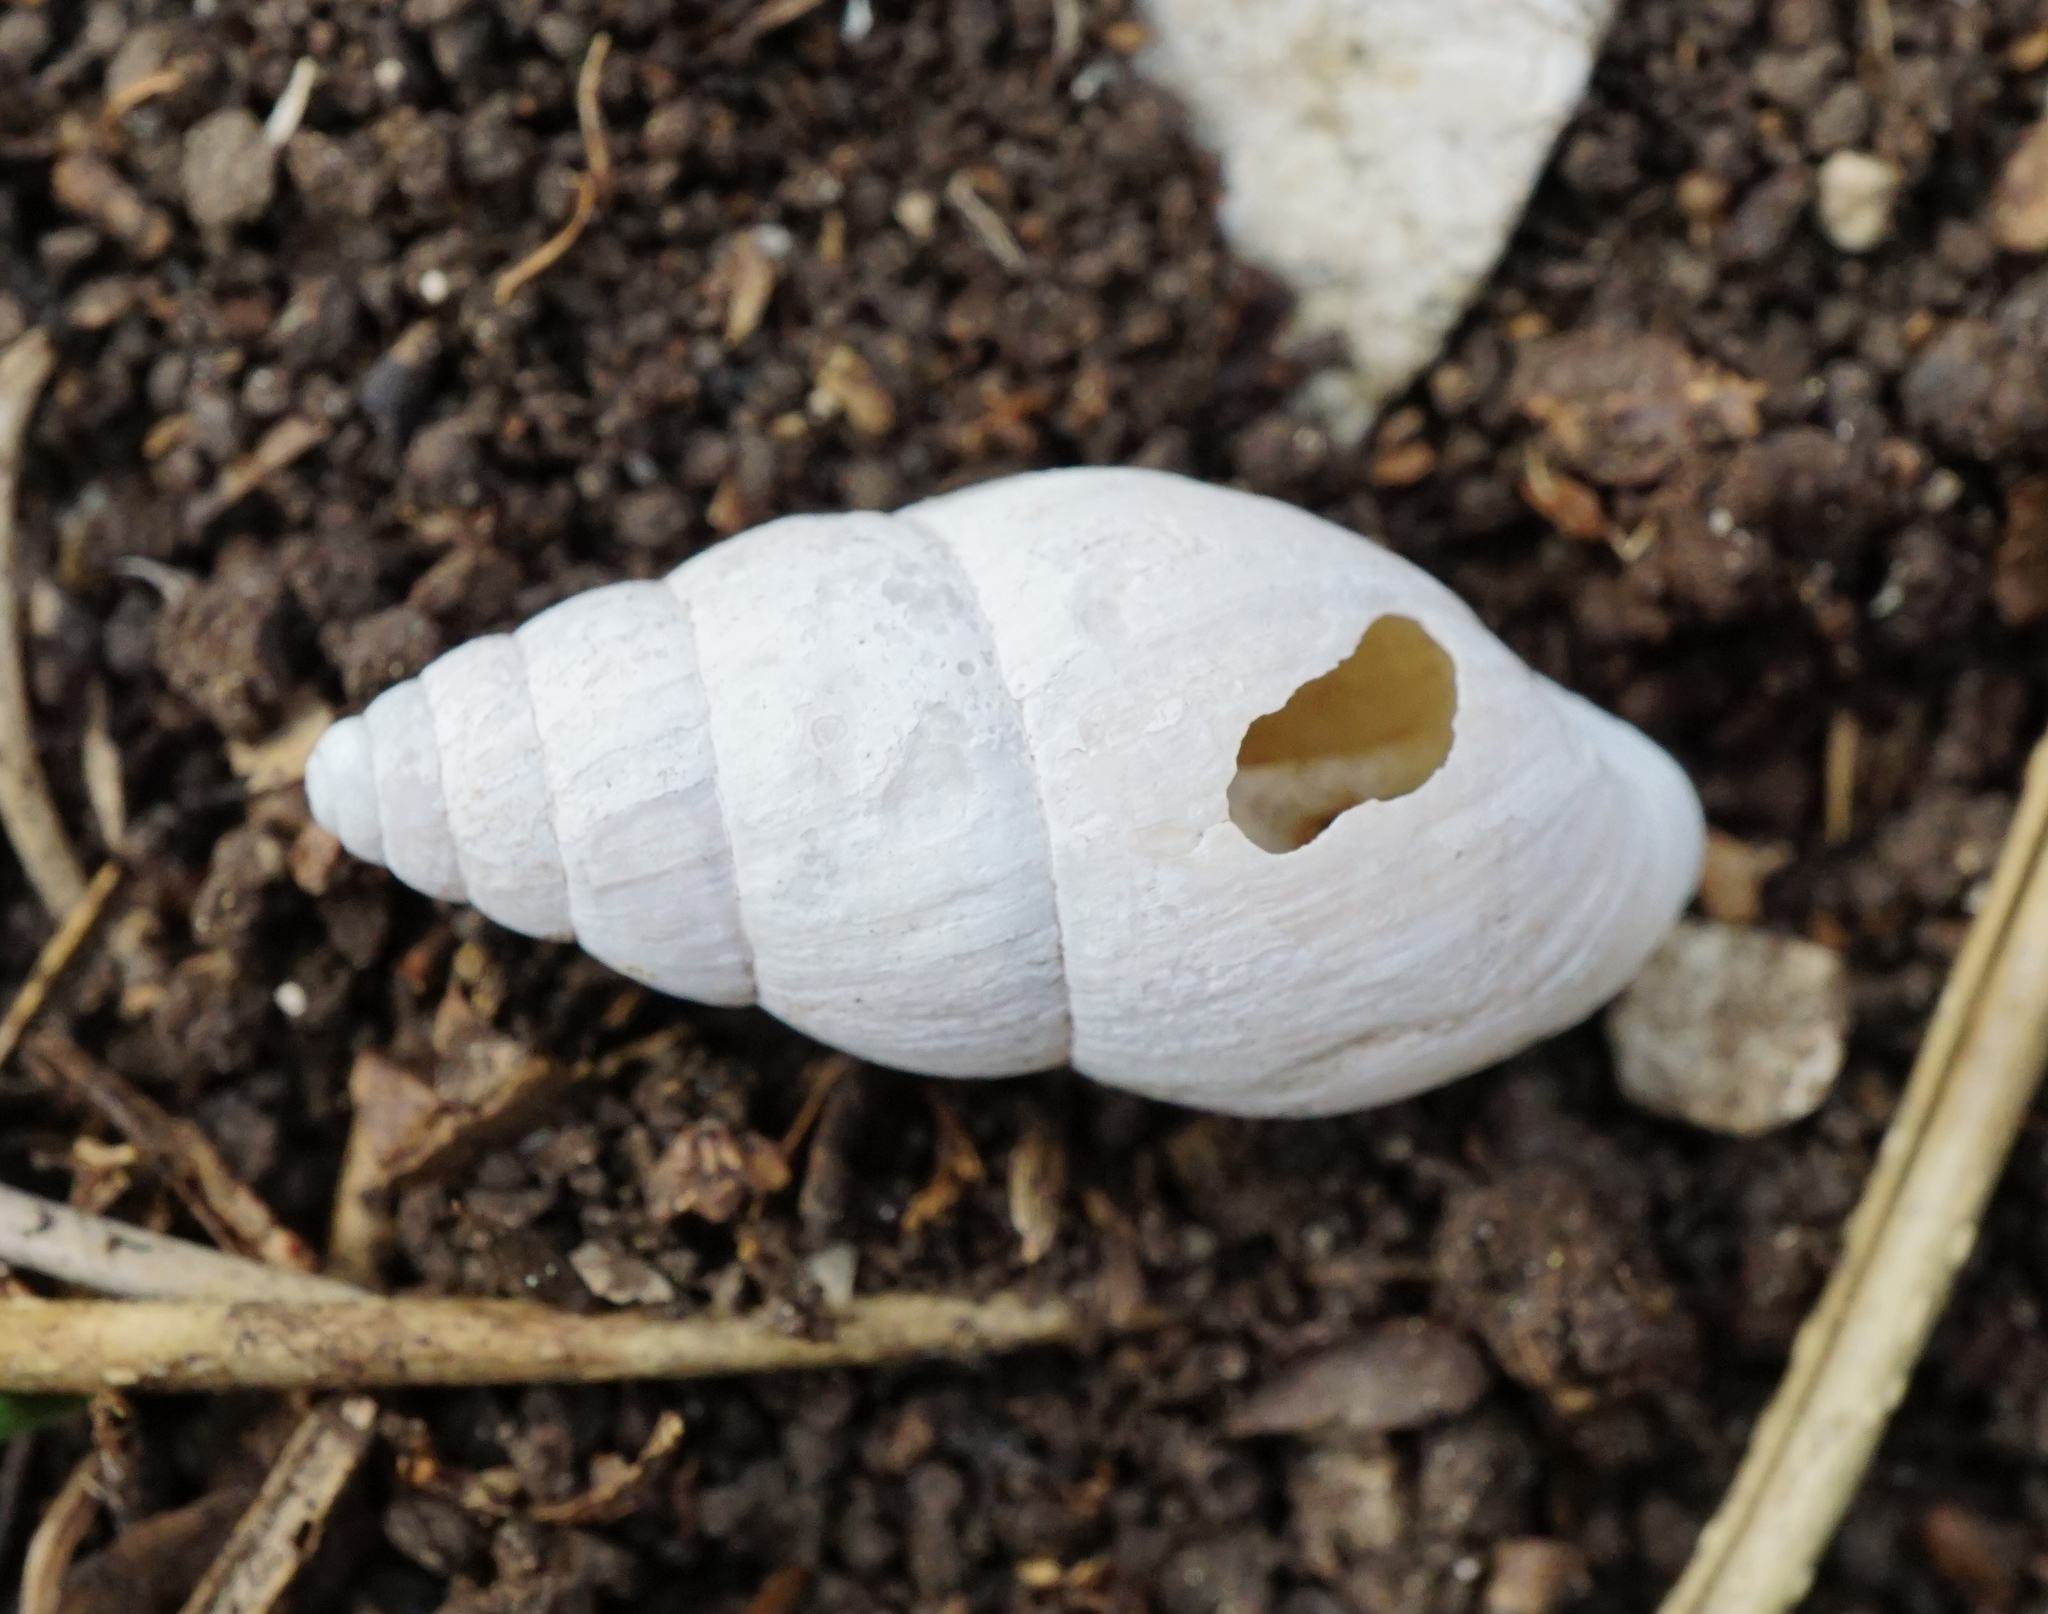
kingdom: Animalia
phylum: Mollusca
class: Gastropoda
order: Stylommatophora
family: Enidae
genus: Zebrina
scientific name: Zebrina detrita
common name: Large bulin
